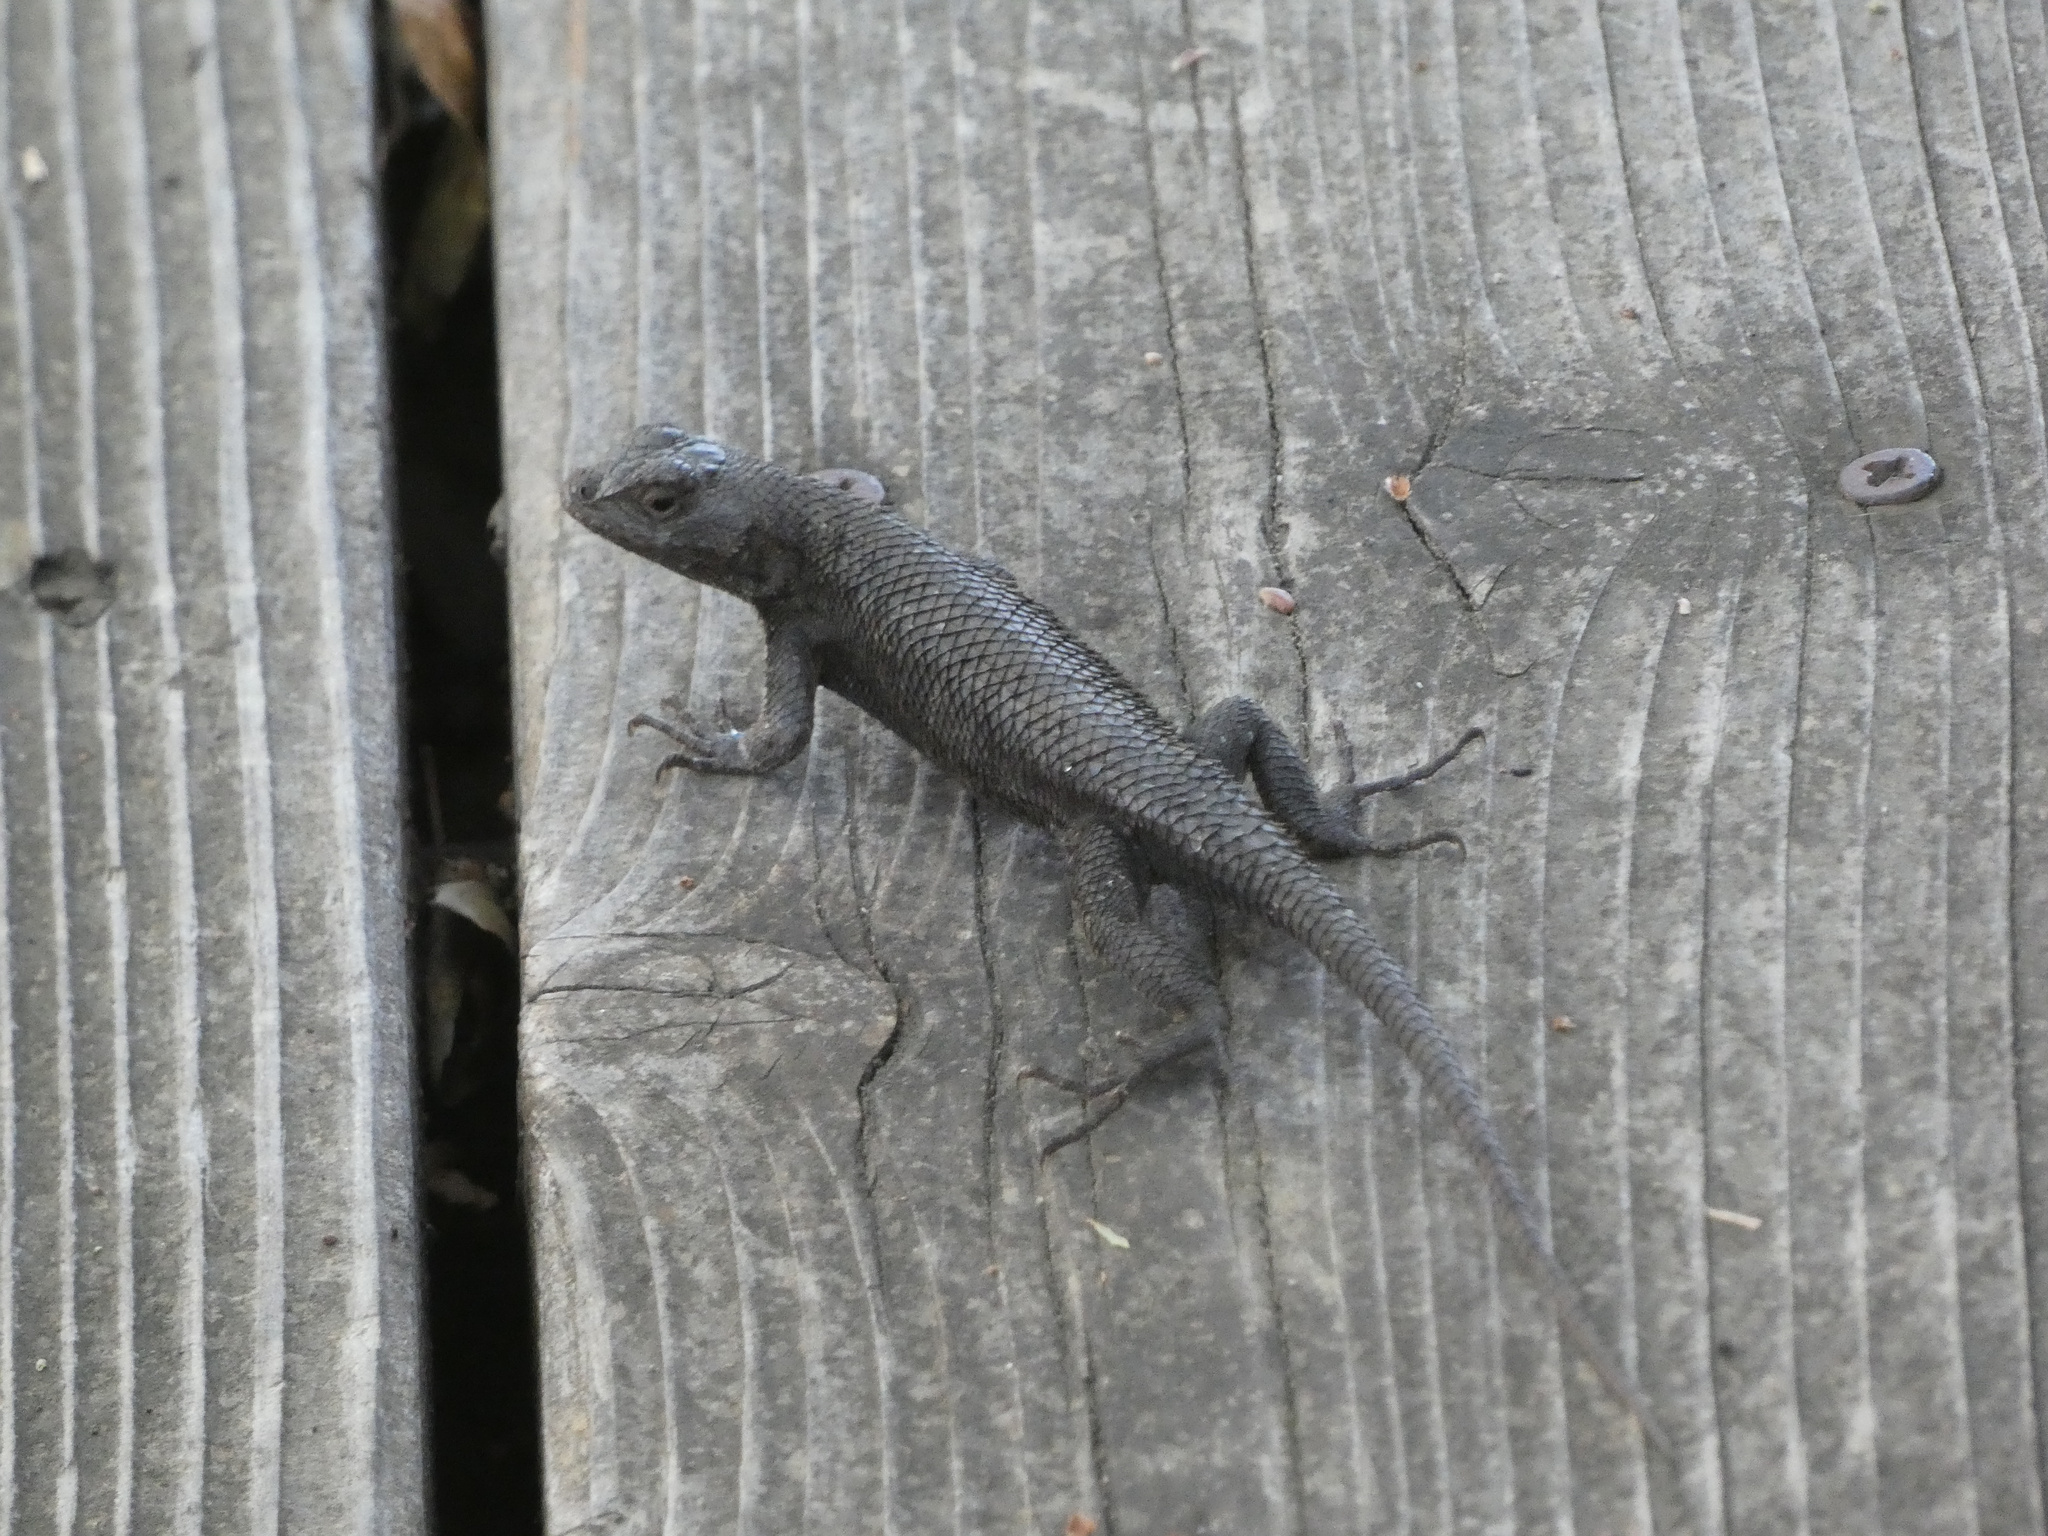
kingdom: Animalia
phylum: Chordata
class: Squamata
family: Phrynosomatidae
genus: Sceloporus
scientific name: Sceloporus occidentalis
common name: Western fence lizard
